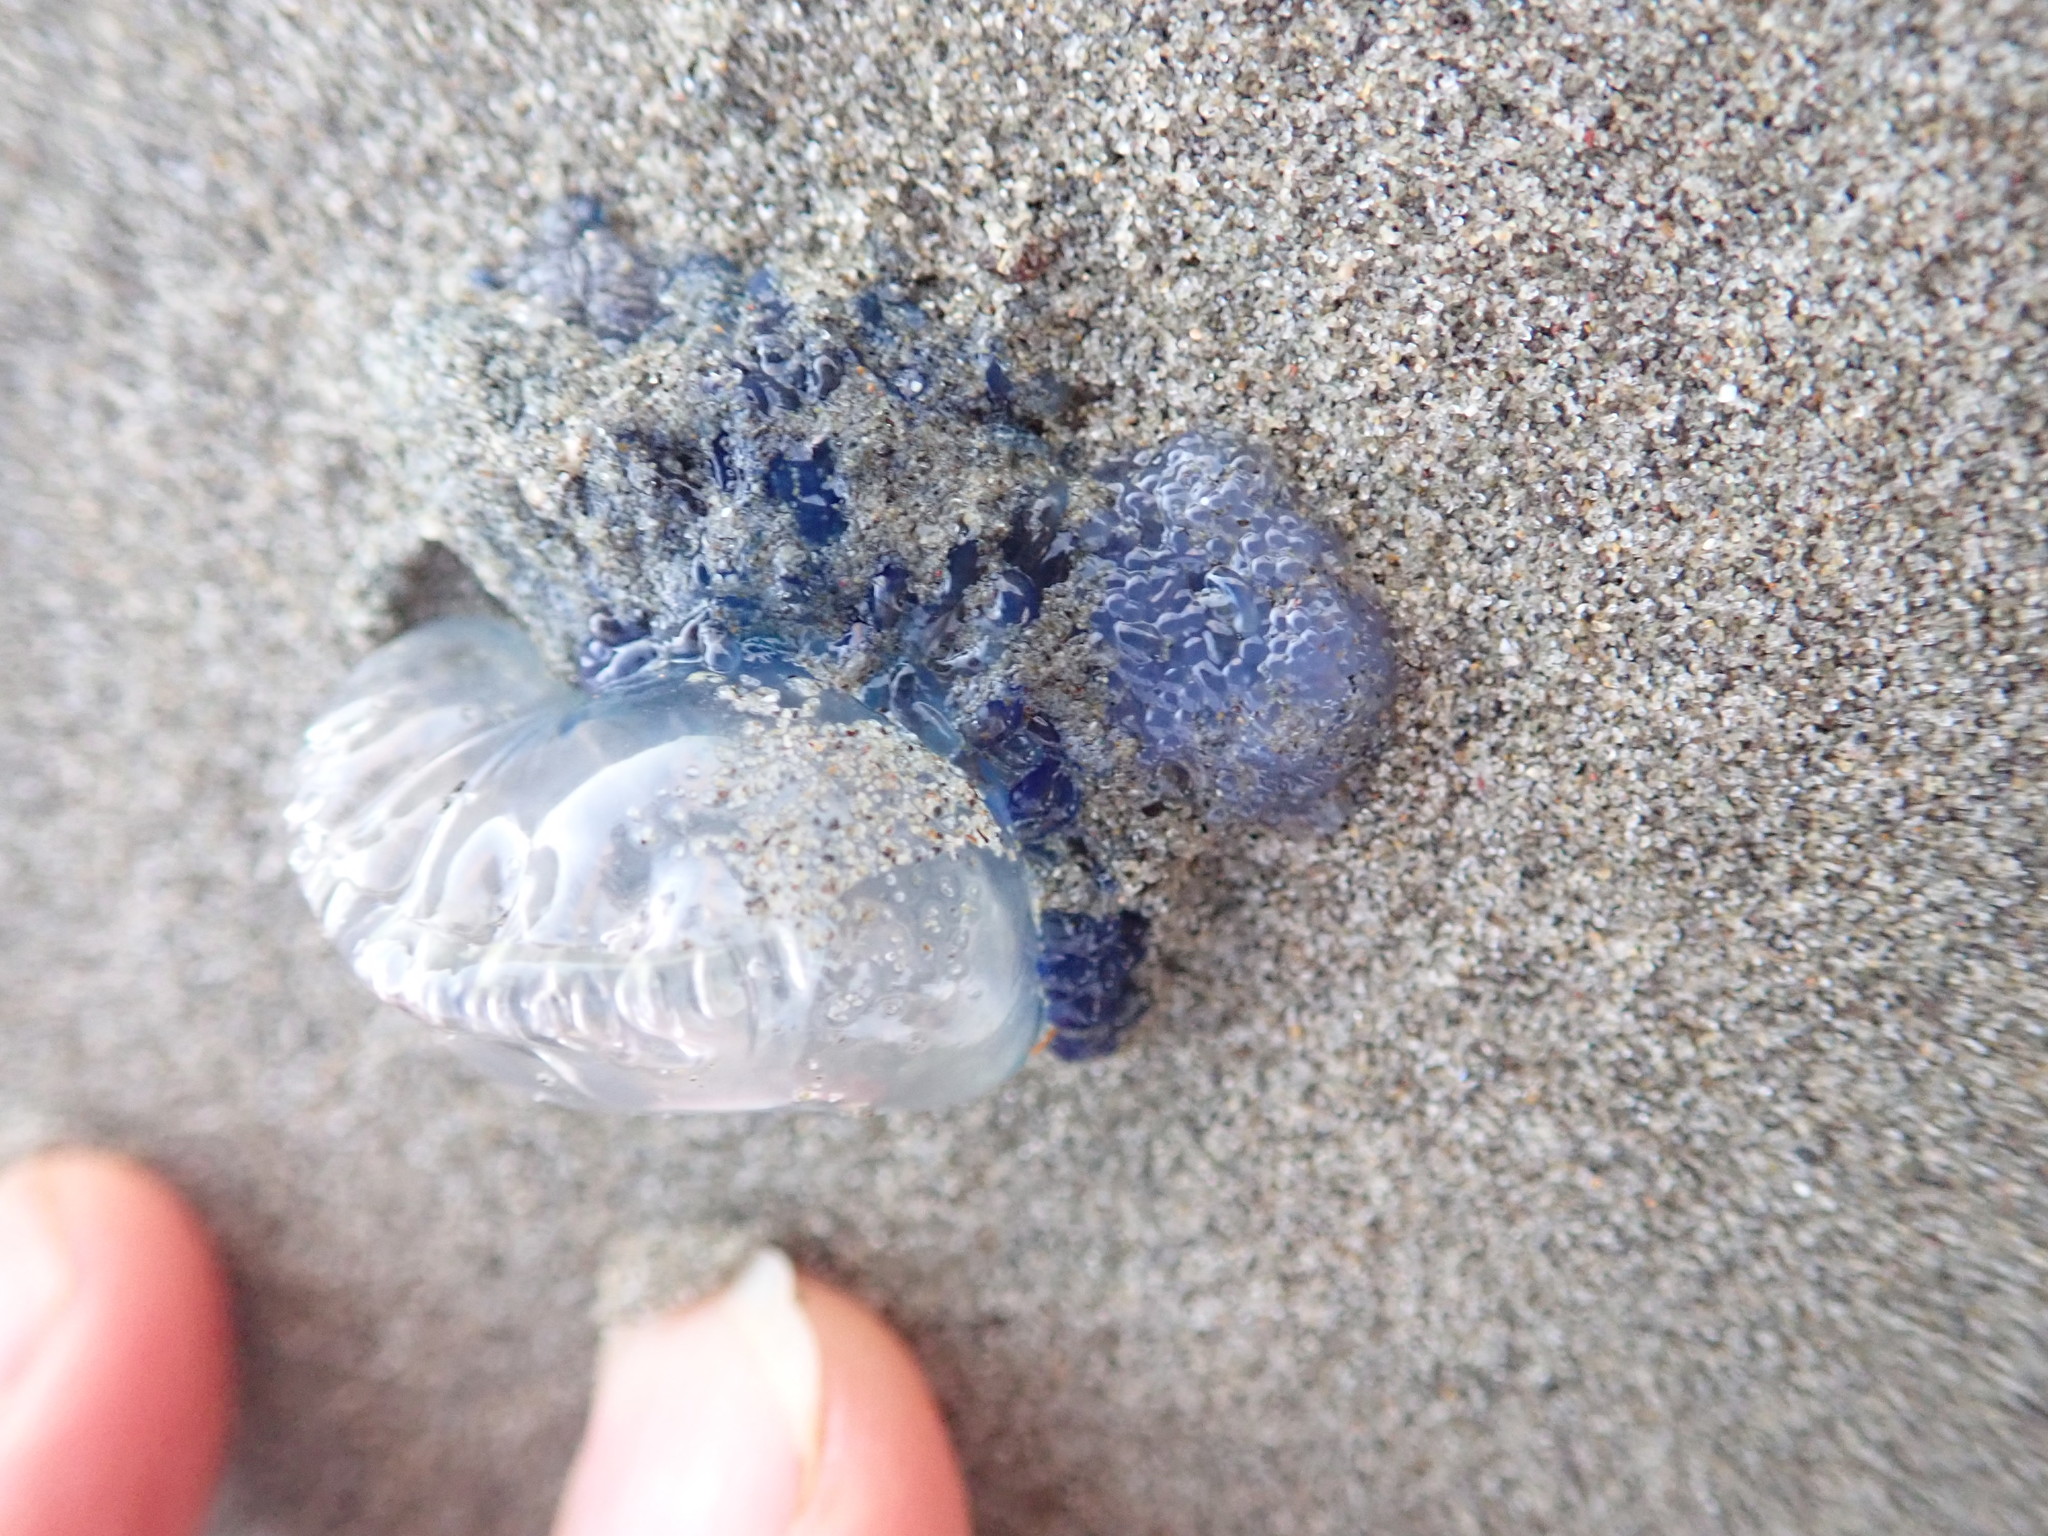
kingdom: Animalia
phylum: Cnidaria
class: Hydrozoa
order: Siphonophorae
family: Physaliidae
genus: Physalia
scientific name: Physalia physalis
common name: Portuguese man-of-war
